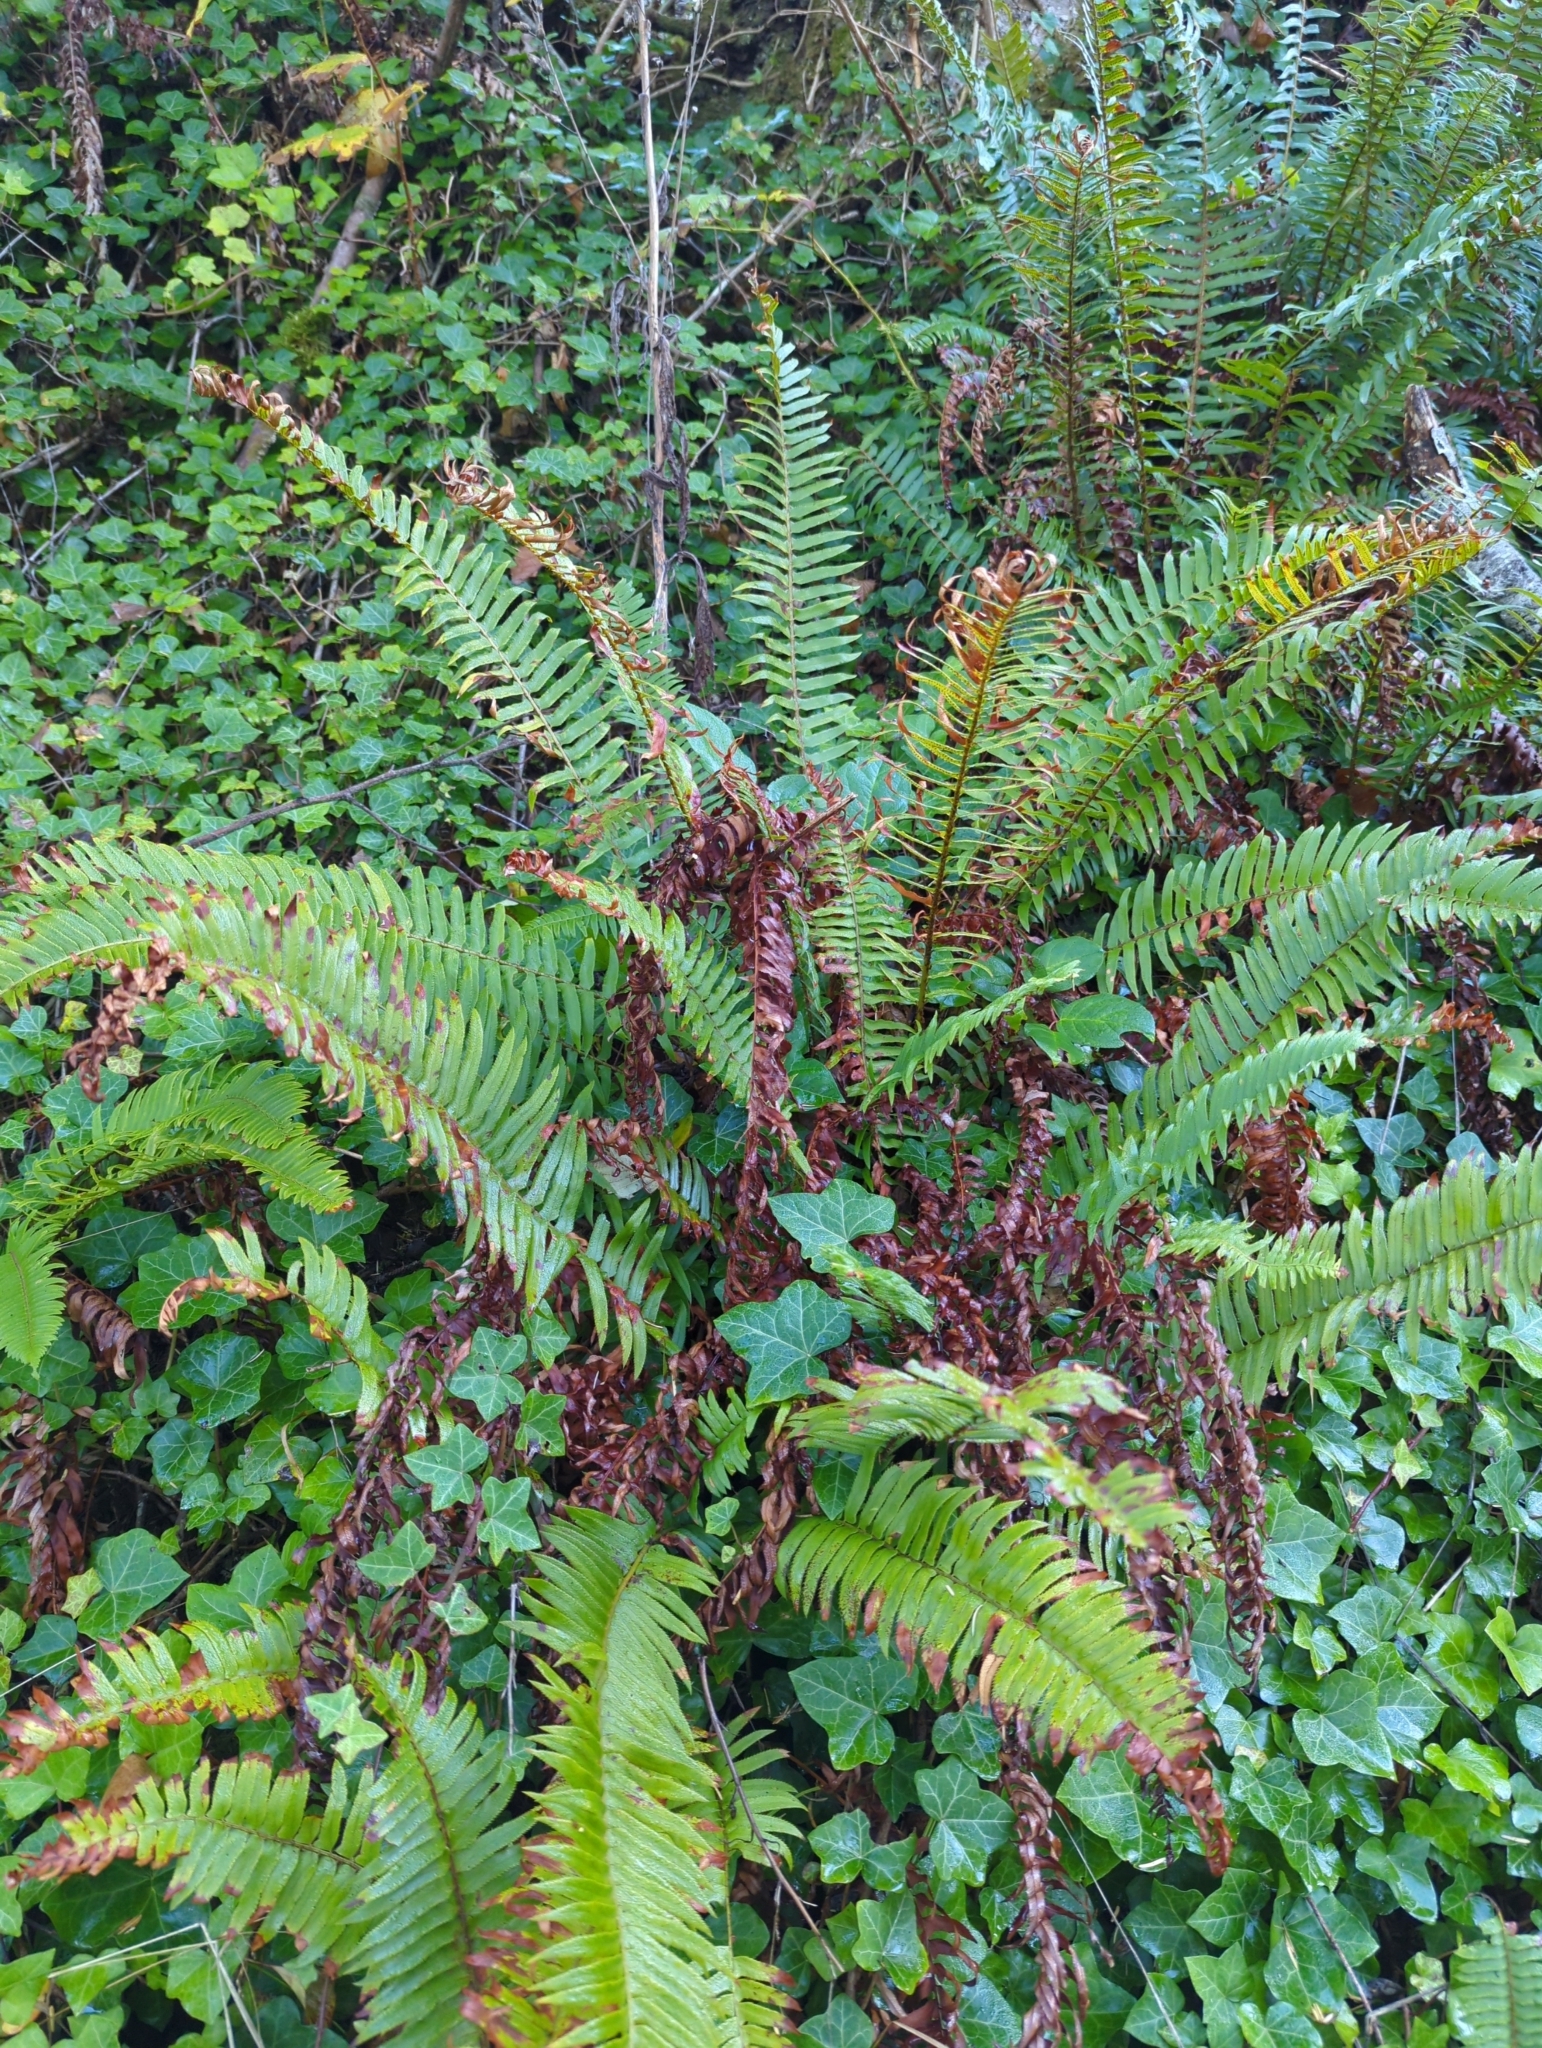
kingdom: Plantae
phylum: Tracheophyta
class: Polypodiopsida
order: Polypodiales
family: Dryopteridaceae
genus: Polystichum
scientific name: Polystichum munitum
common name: Western sword-fern
